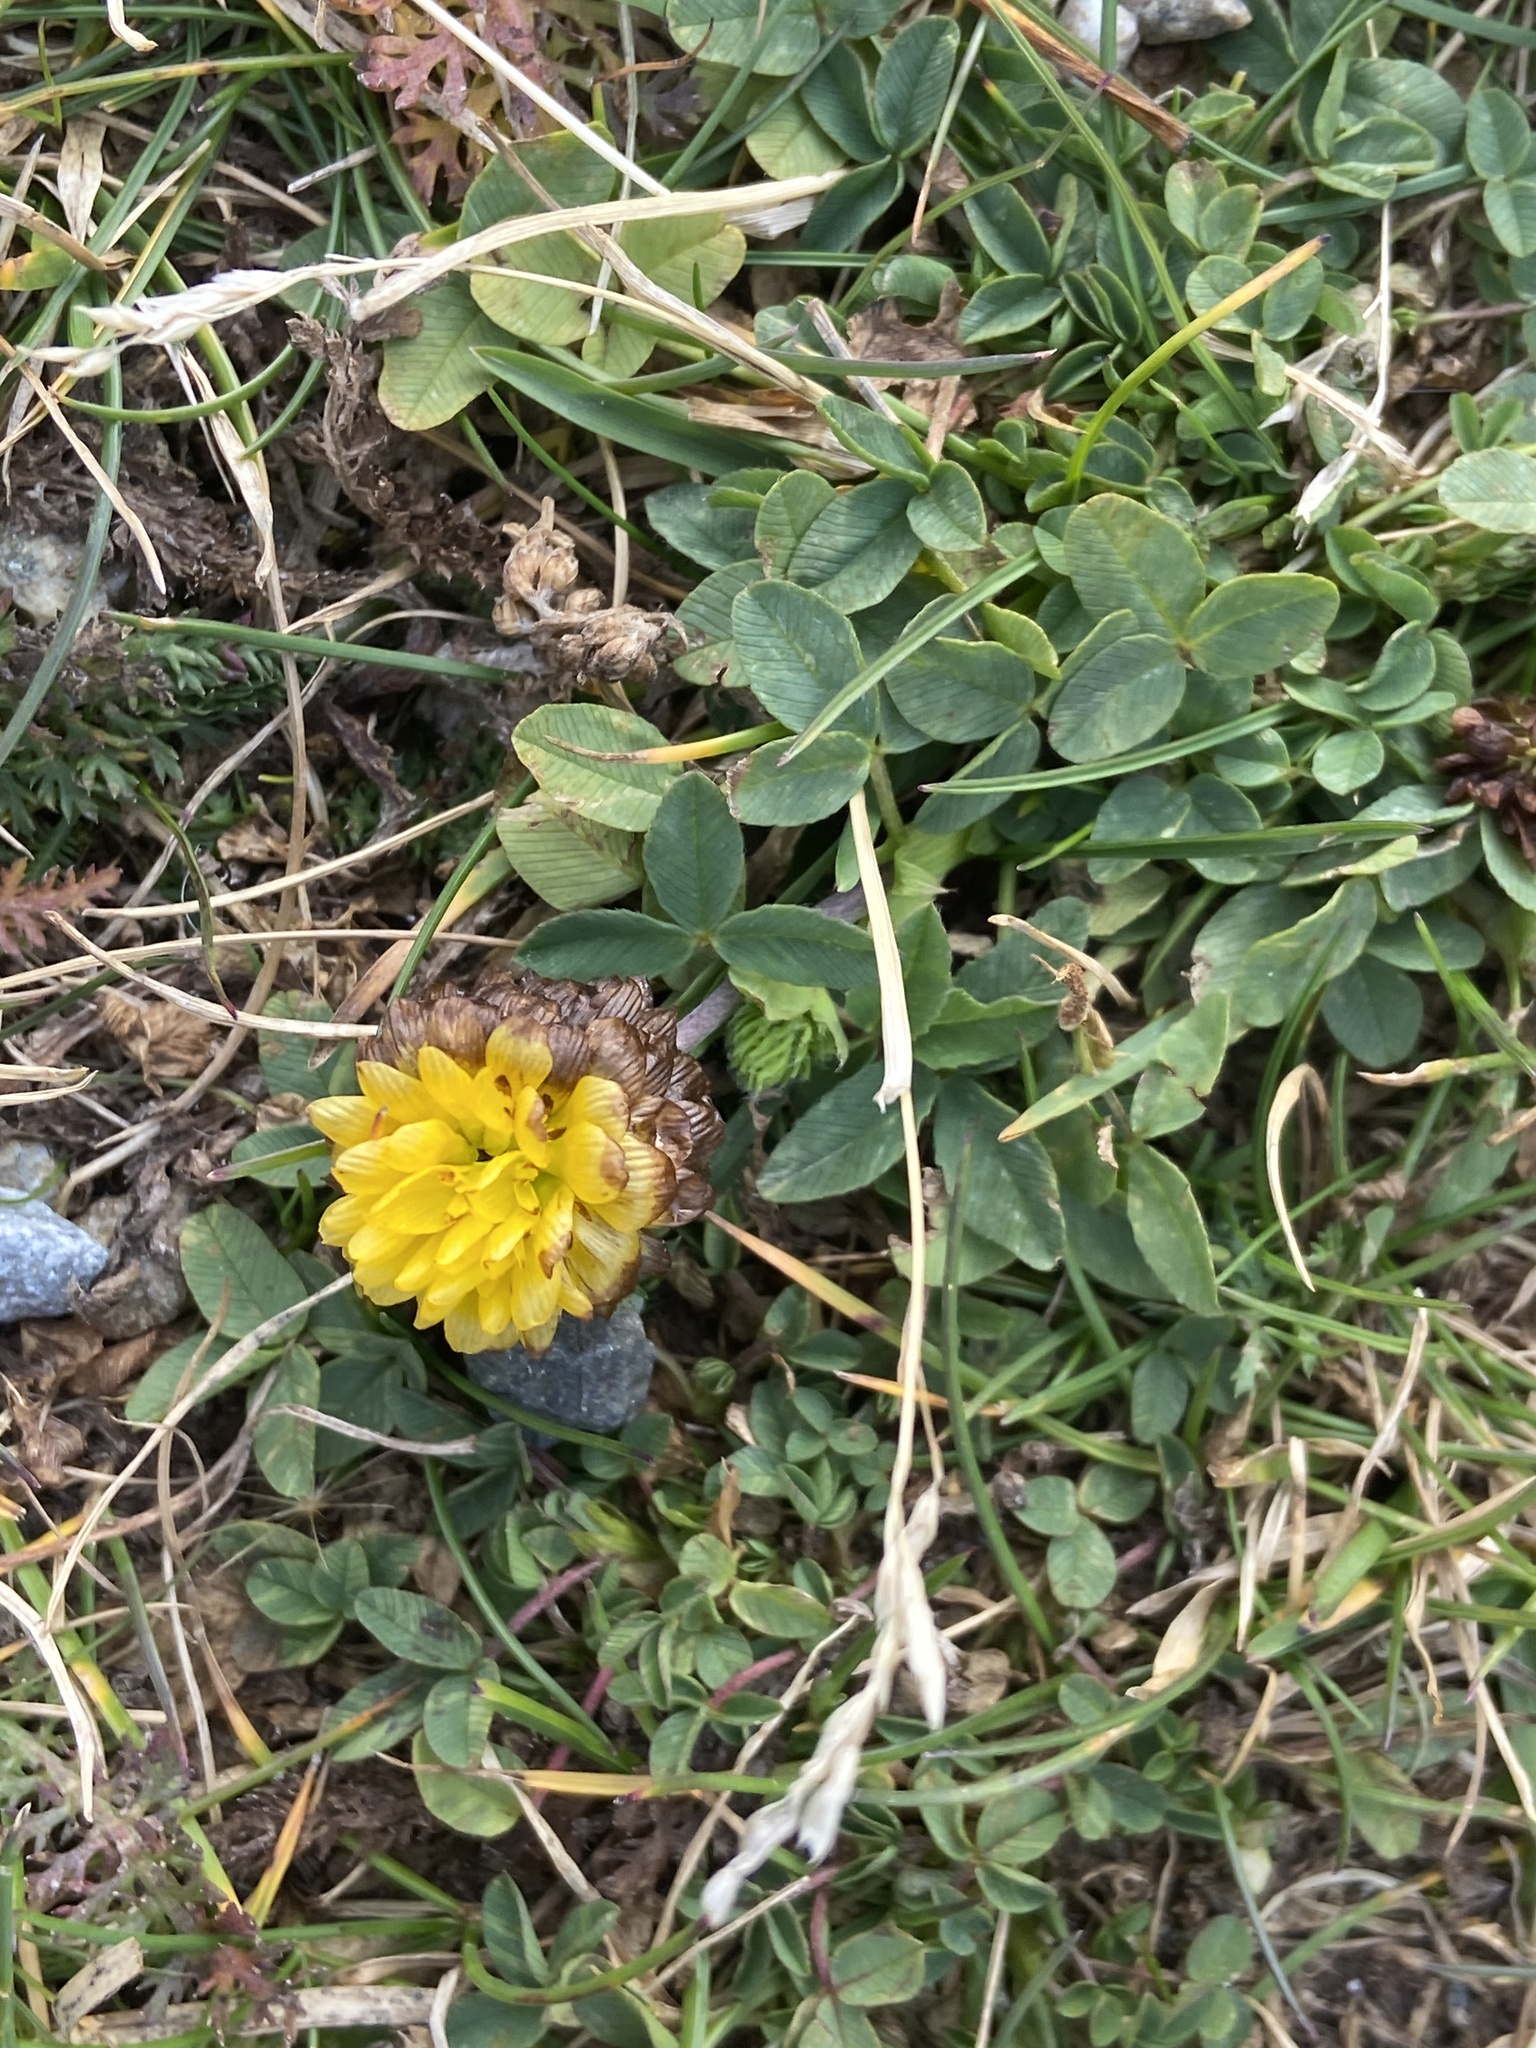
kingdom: Plantae
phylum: Tracheophyta
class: Magnoliopsida
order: Fabales
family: Fabaceae
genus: Trifolium
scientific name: Trifolium badium
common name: Brown clover
